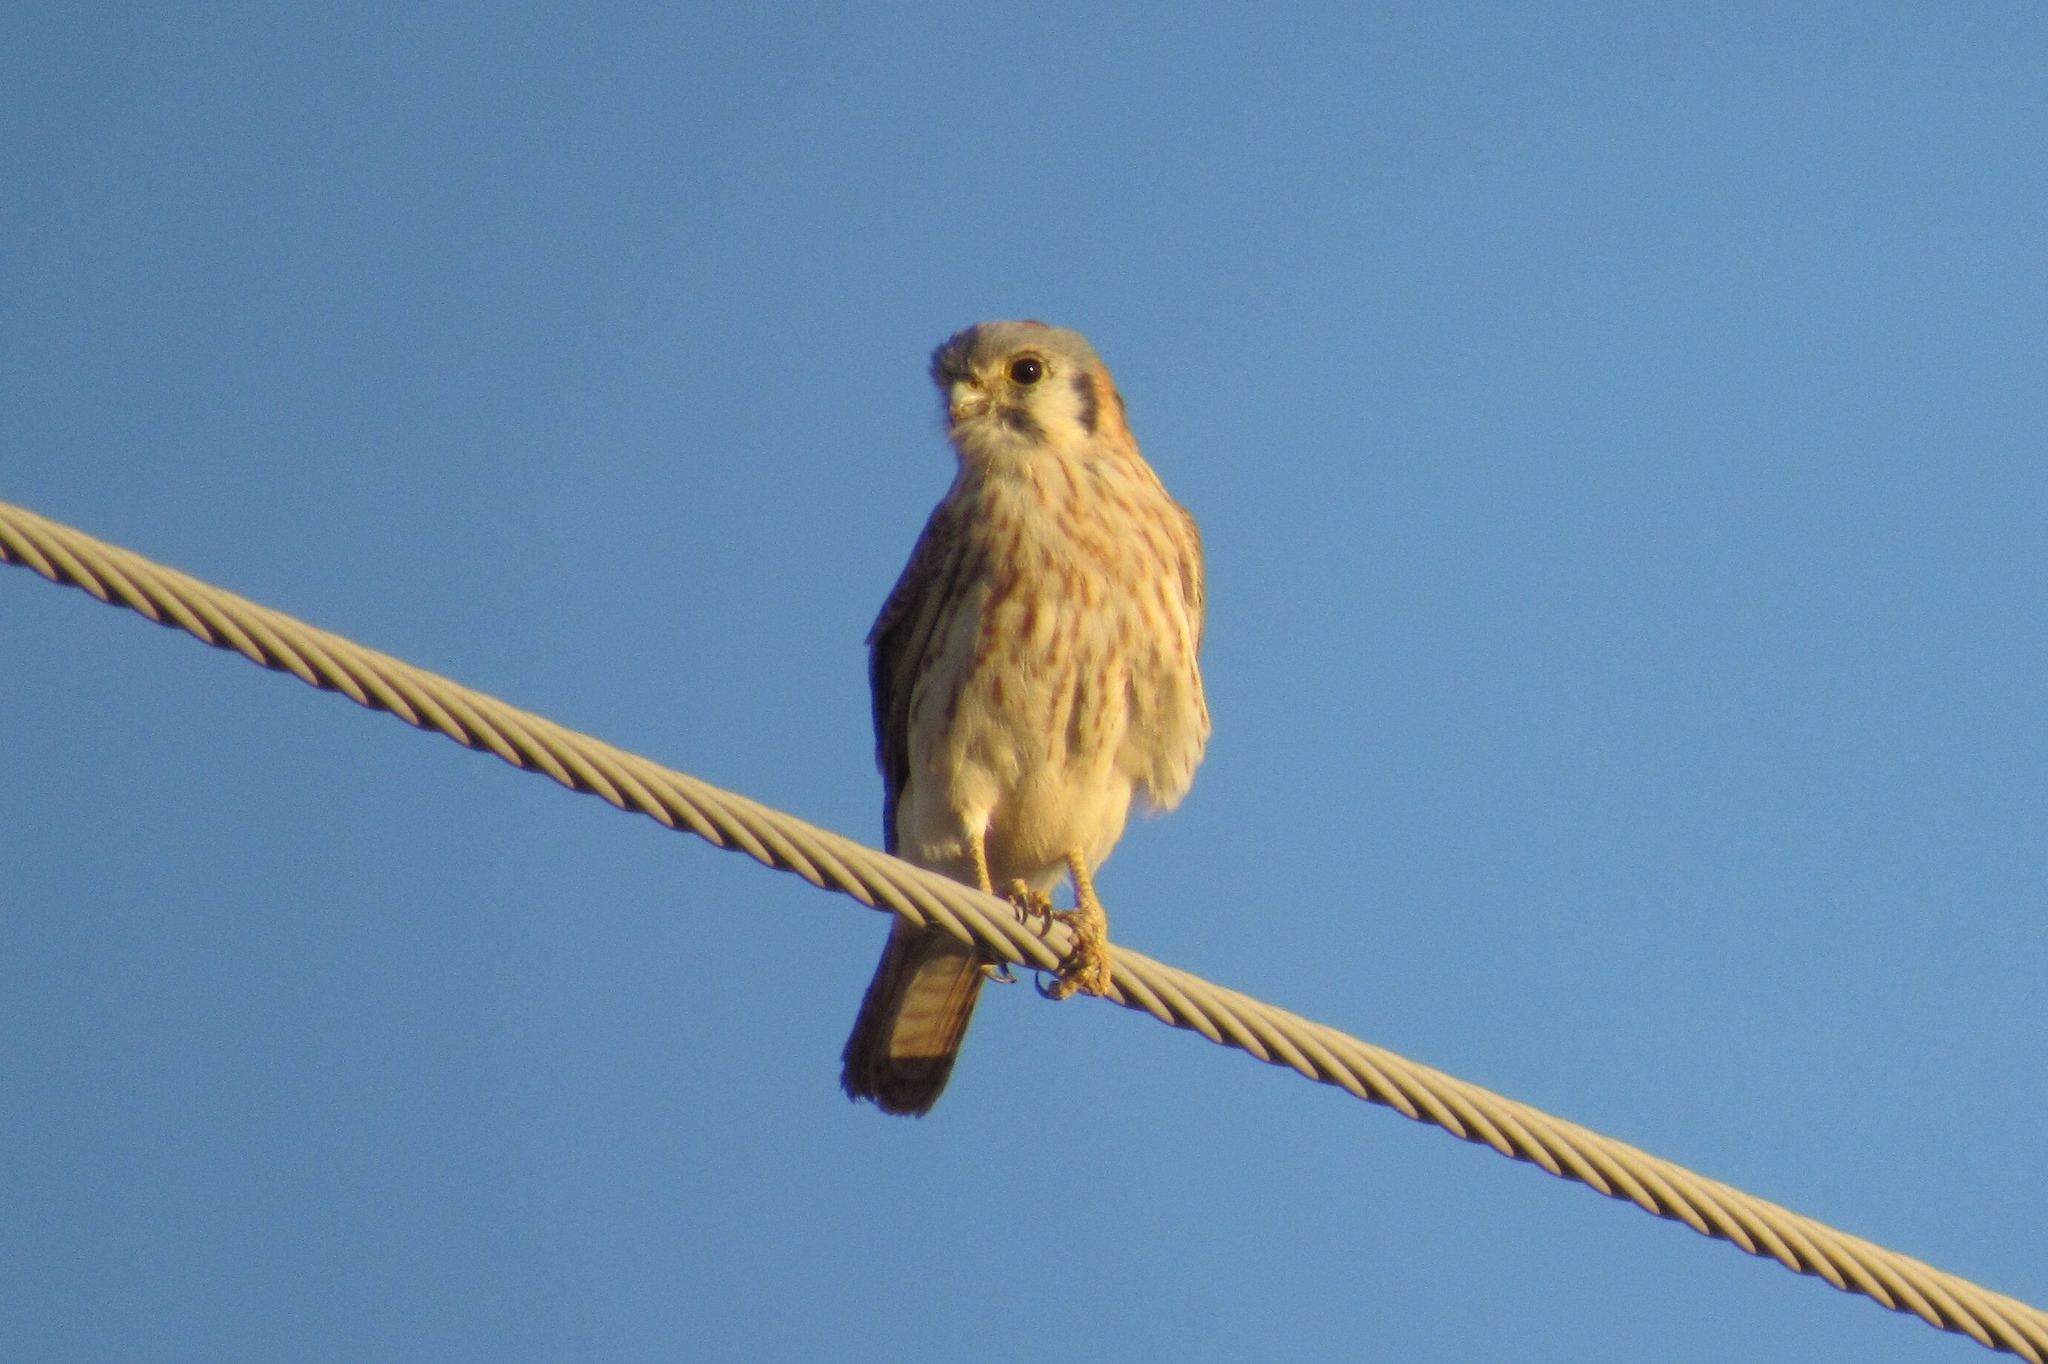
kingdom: Animalia
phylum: Chordata
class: Aves
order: Falconiformes
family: Falconidae
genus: Falco
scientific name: Falco sparverius
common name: American kestrel
